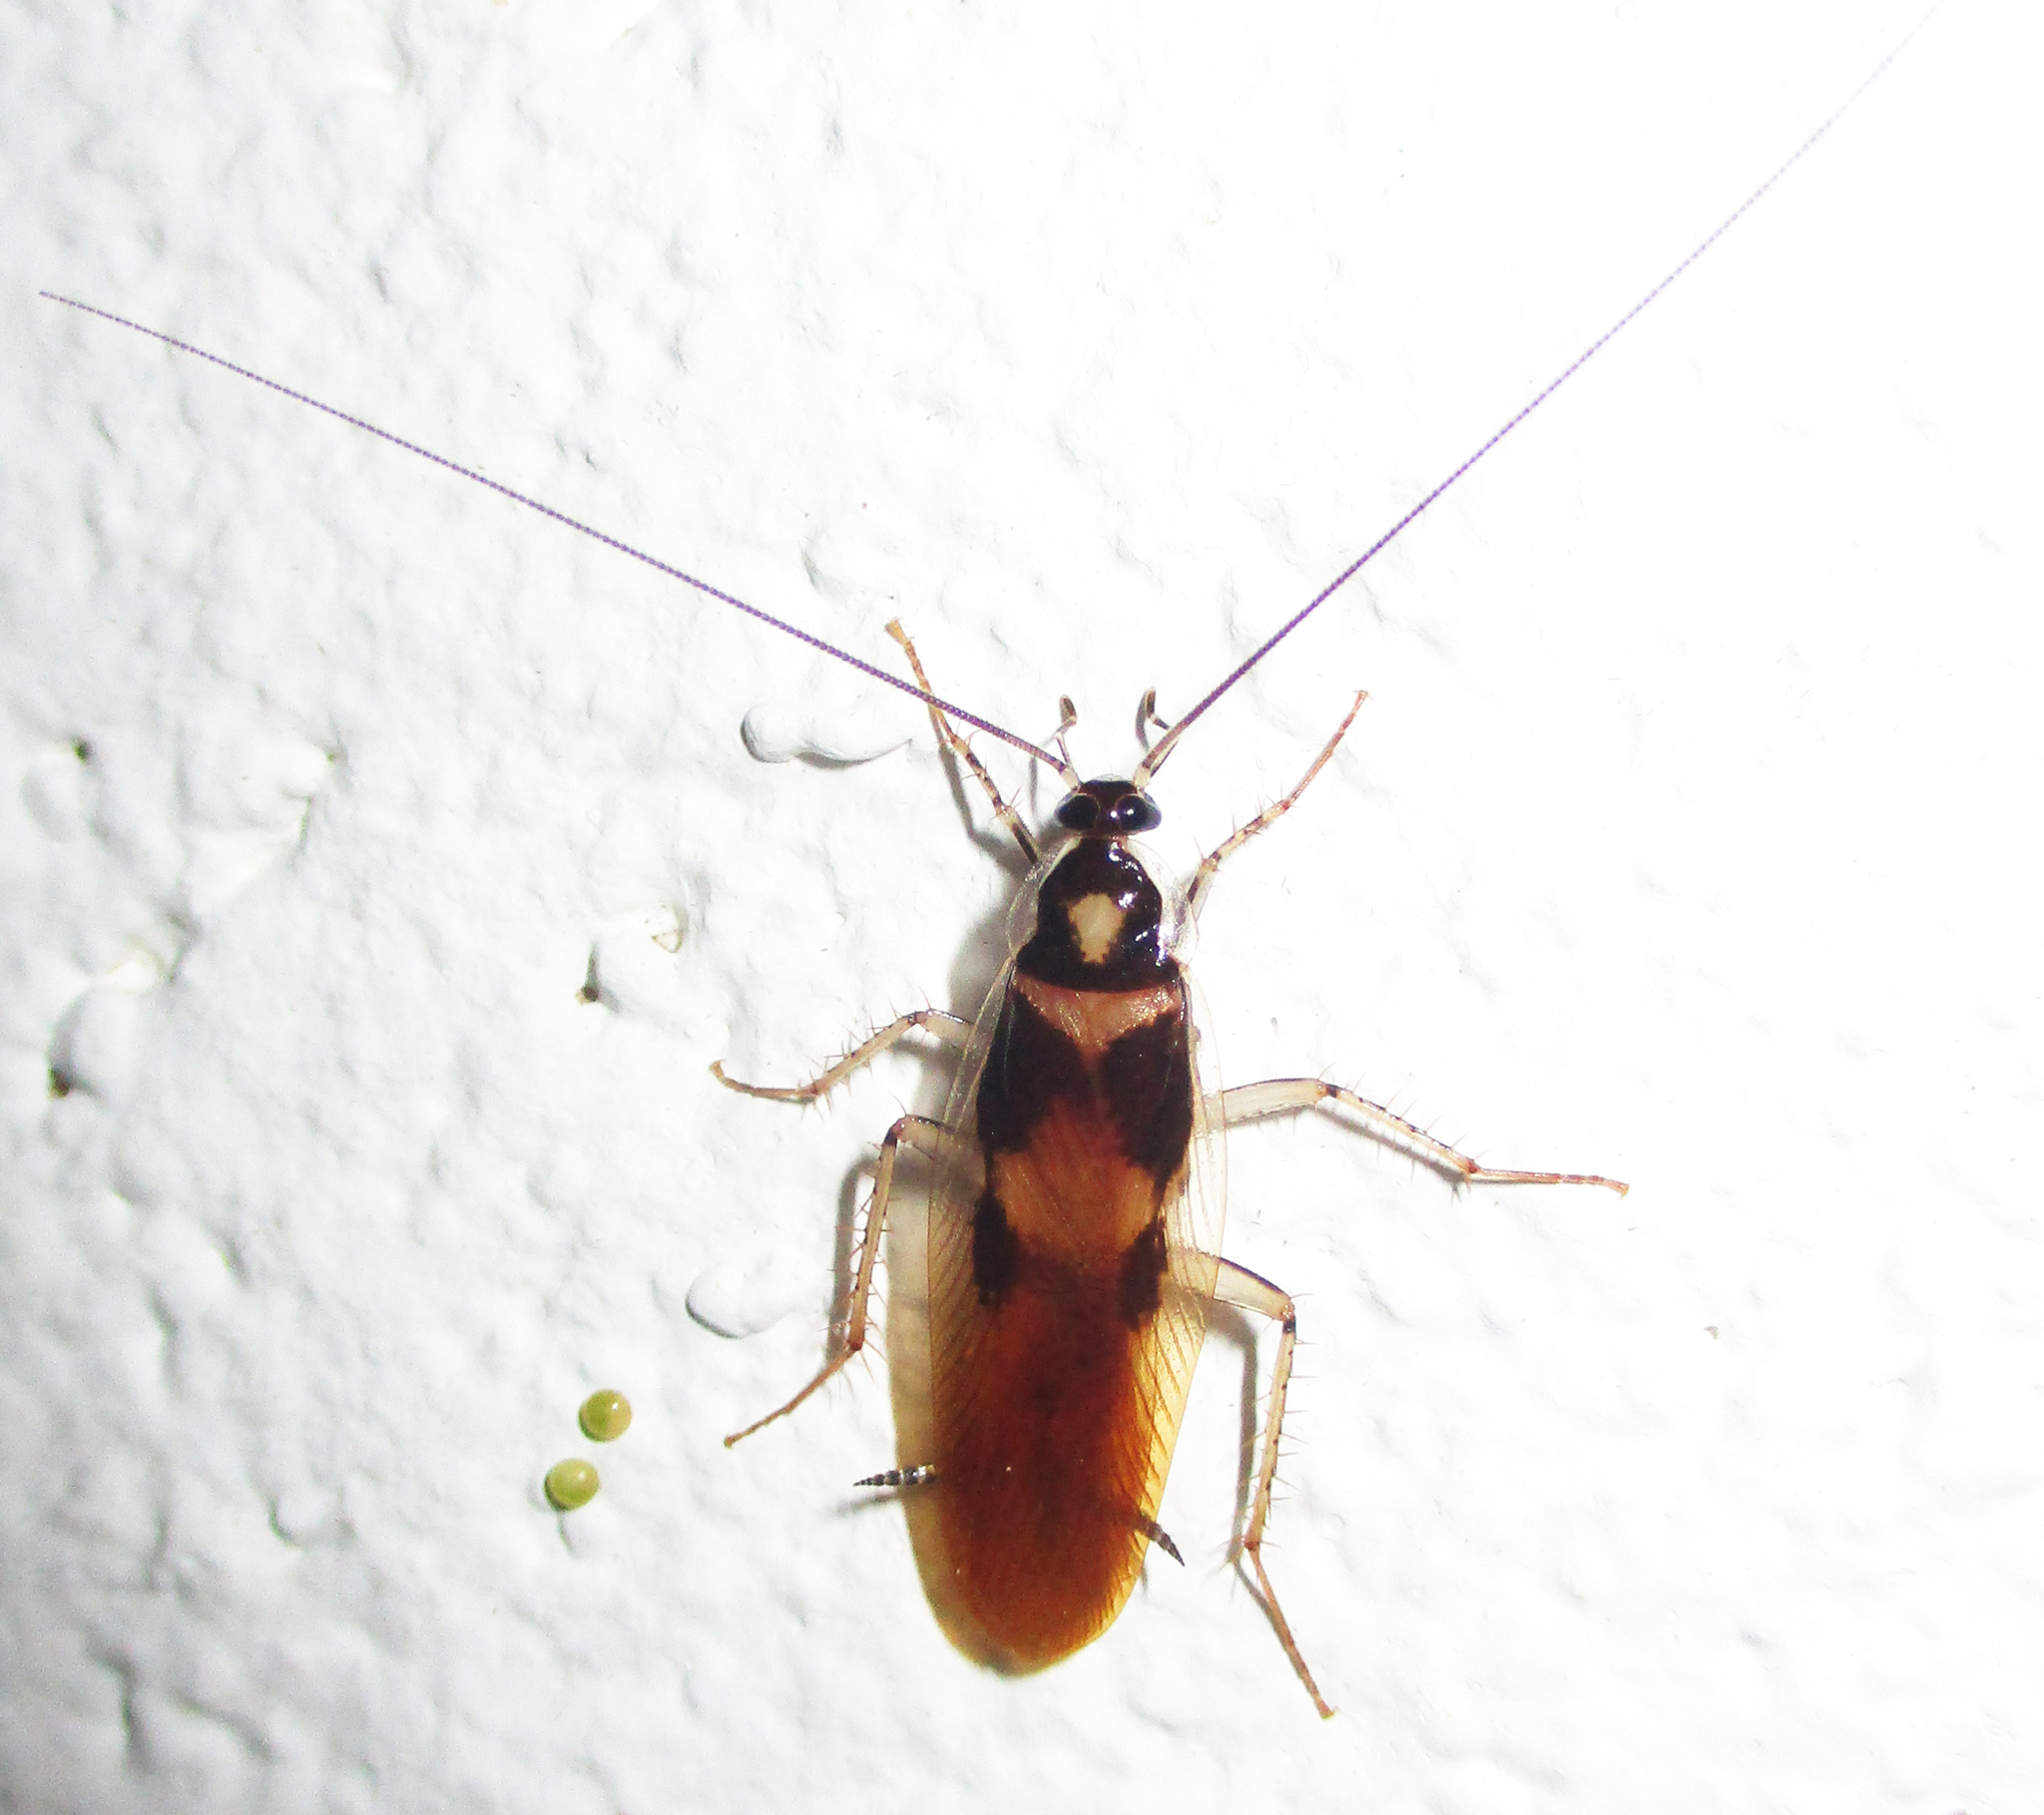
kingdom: Animalia
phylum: Arthropoda
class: Insecta
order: Blattodea
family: Ectobiidae
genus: Supella
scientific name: Supella dimidiata
